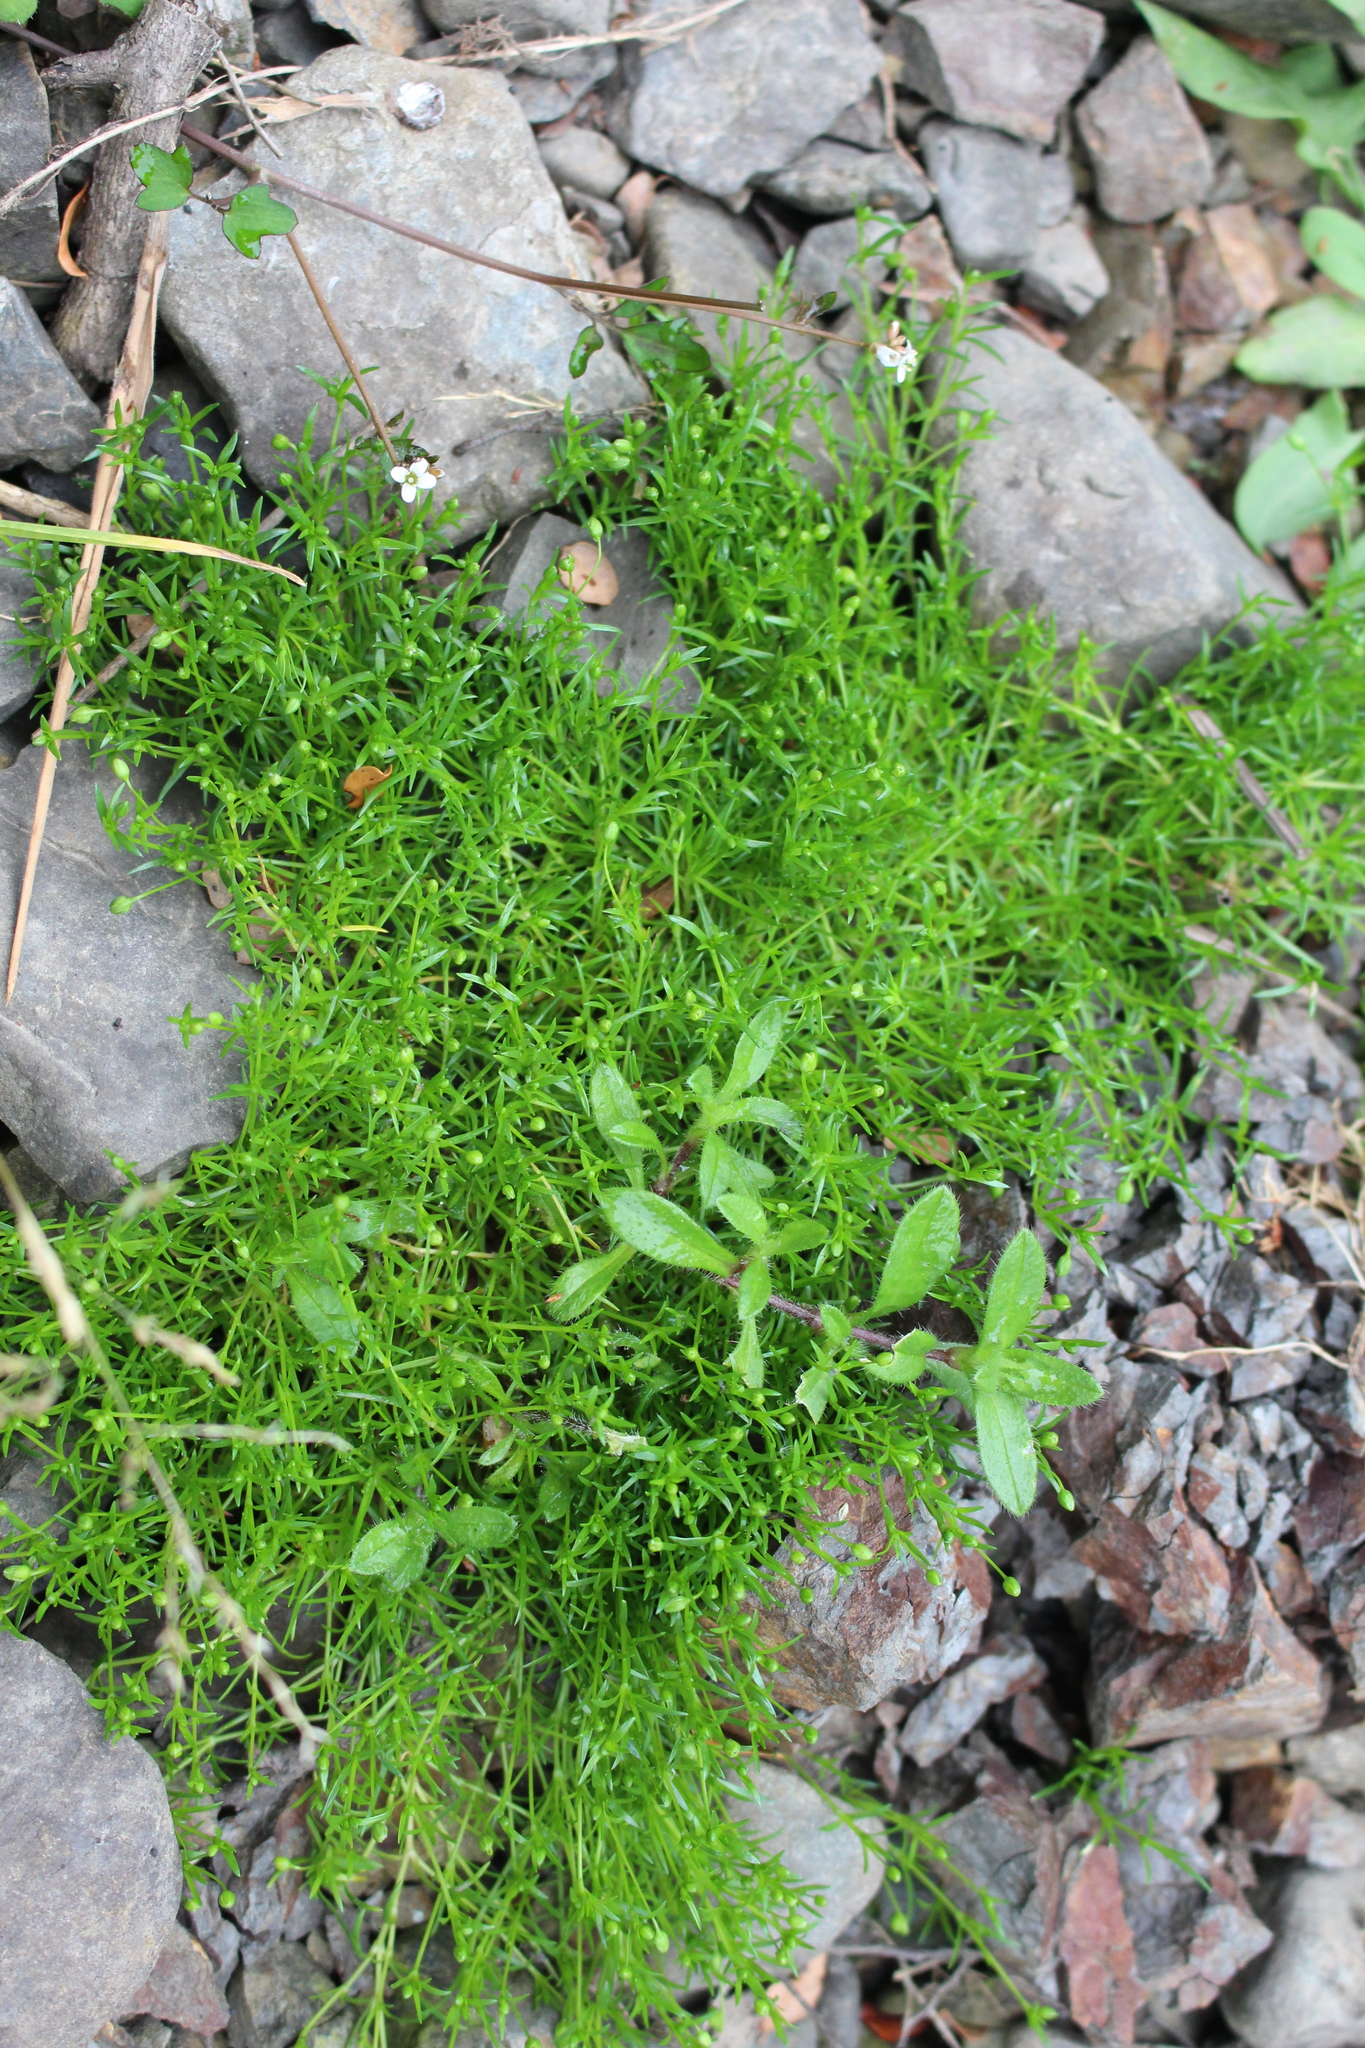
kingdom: Plantae
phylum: Tracheophyta
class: Magnoliopsida
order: Caryophyllales
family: Caryophyllaceae
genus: Sagina
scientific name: Sagina procumbens
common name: Procumbent pearlwort
